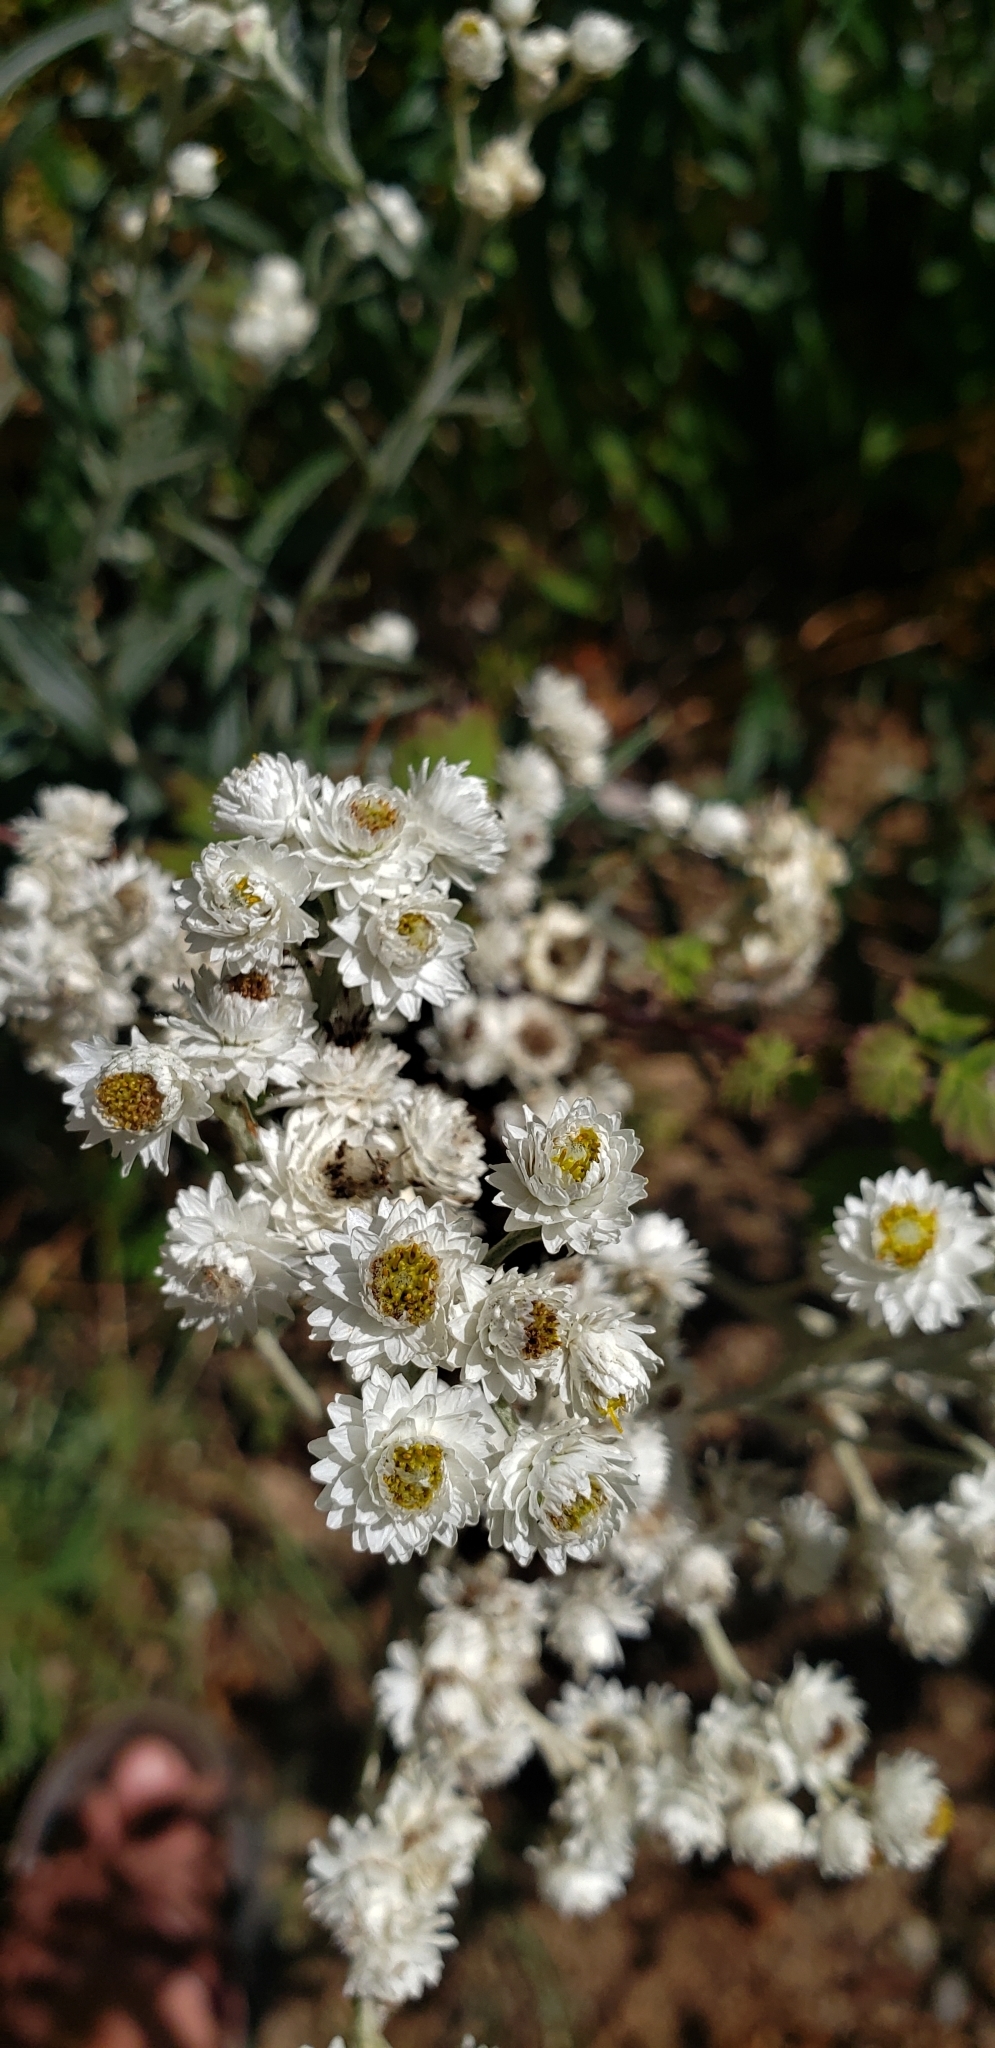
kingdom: Plantae
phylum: Tracheophyta
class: Magnoliopsida
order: Asterales
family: Asteraceae
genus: Anaphalis
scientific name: Anaphalis margaritacea
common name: Pearly everlasting
